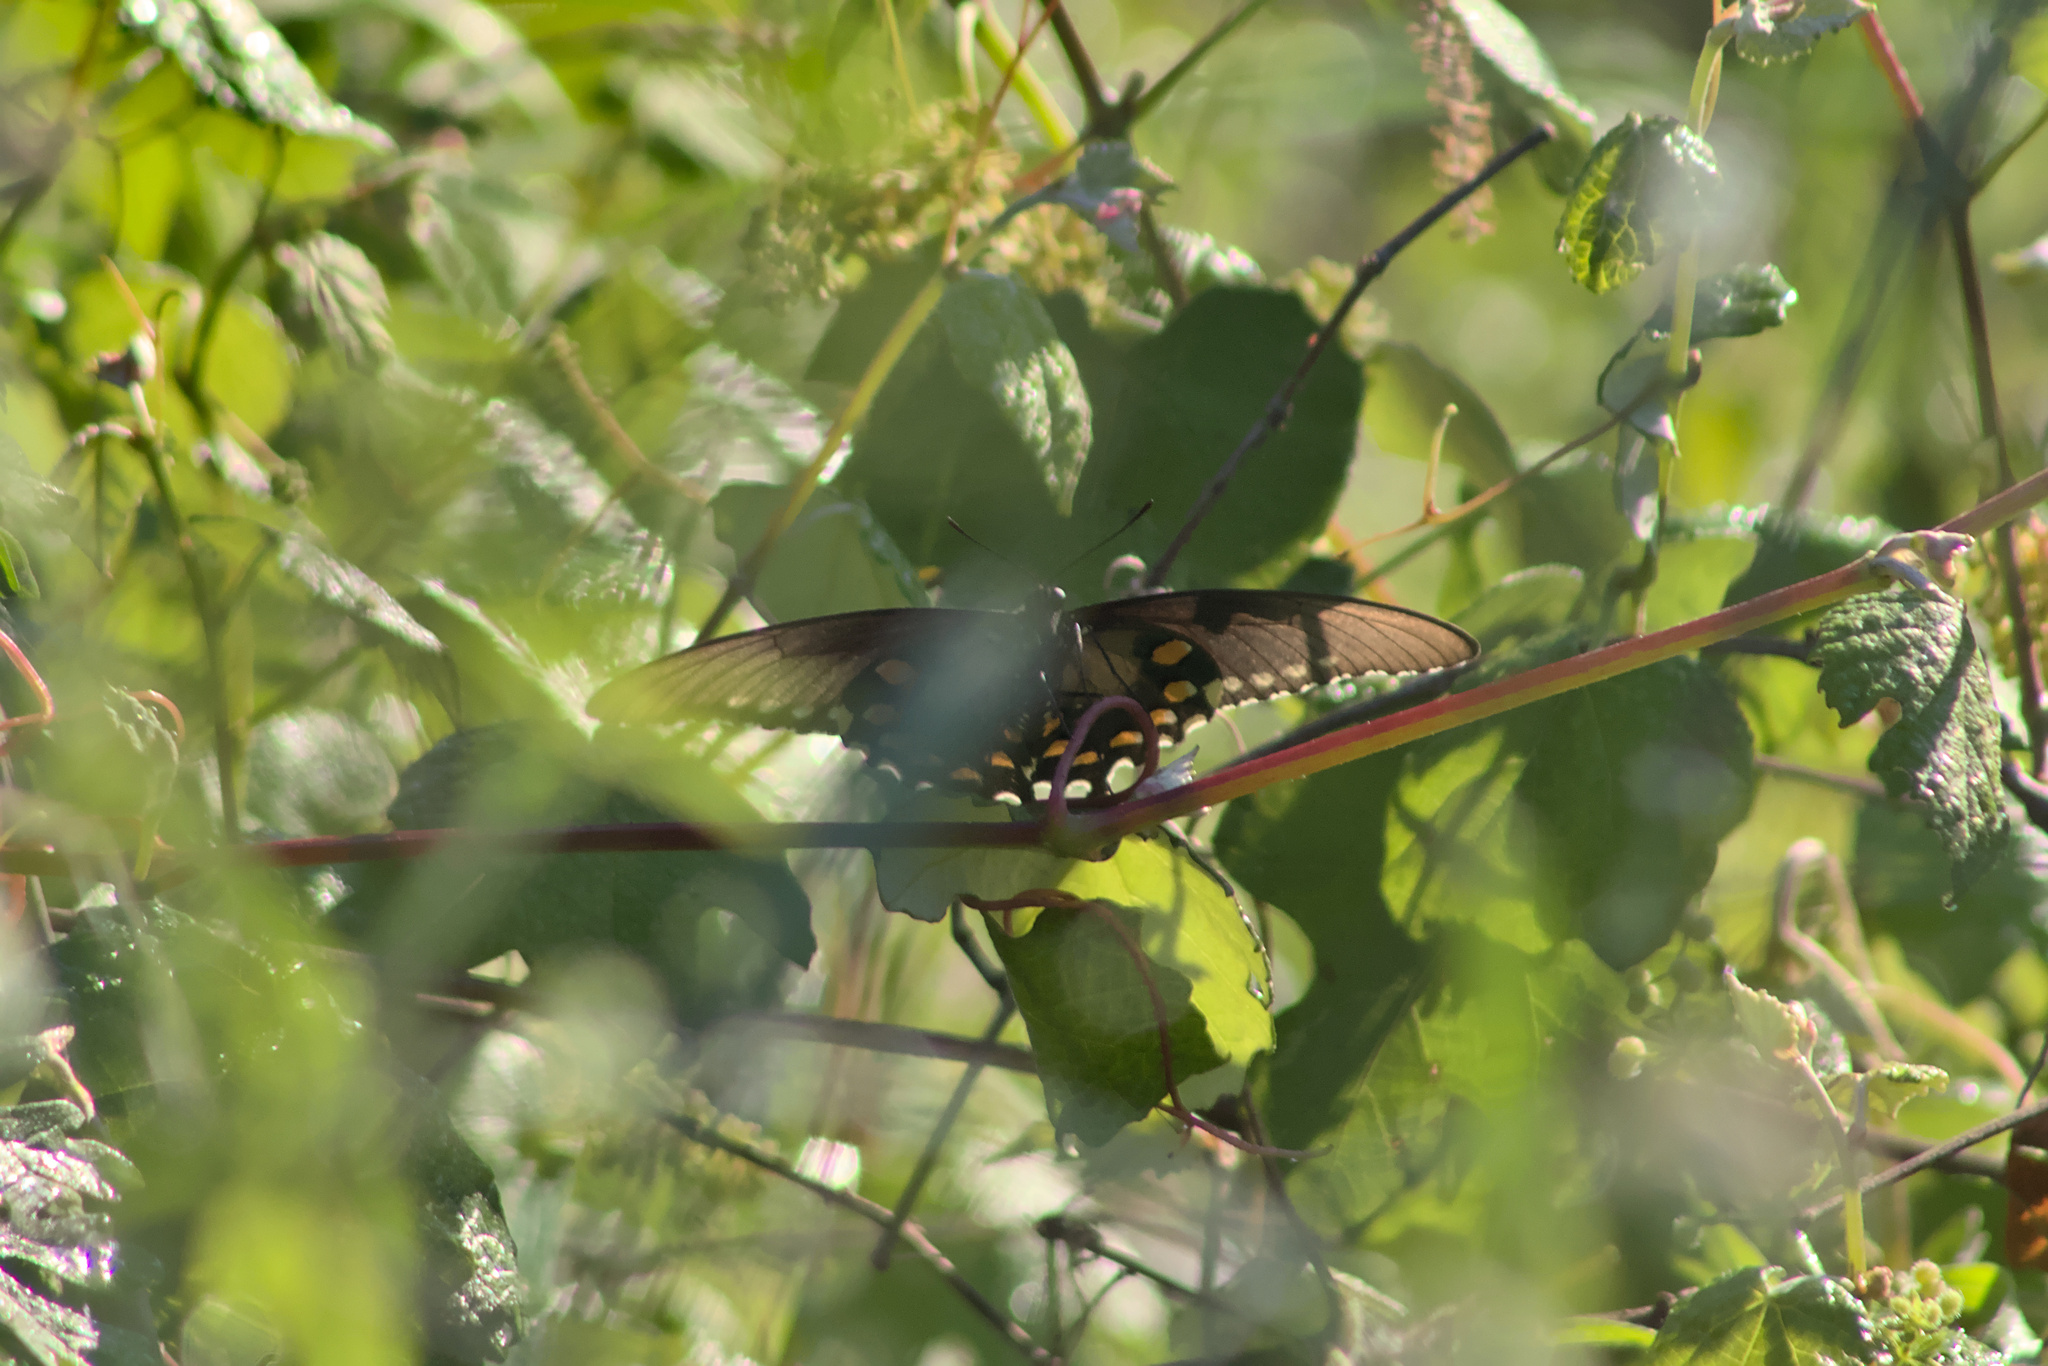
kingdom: Animalia
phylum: Arthropoda
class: Insecta
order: Lepidoptera
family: Papilionidae
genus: Battus
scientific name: Battus philenor
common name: Pipevine swallowtail
